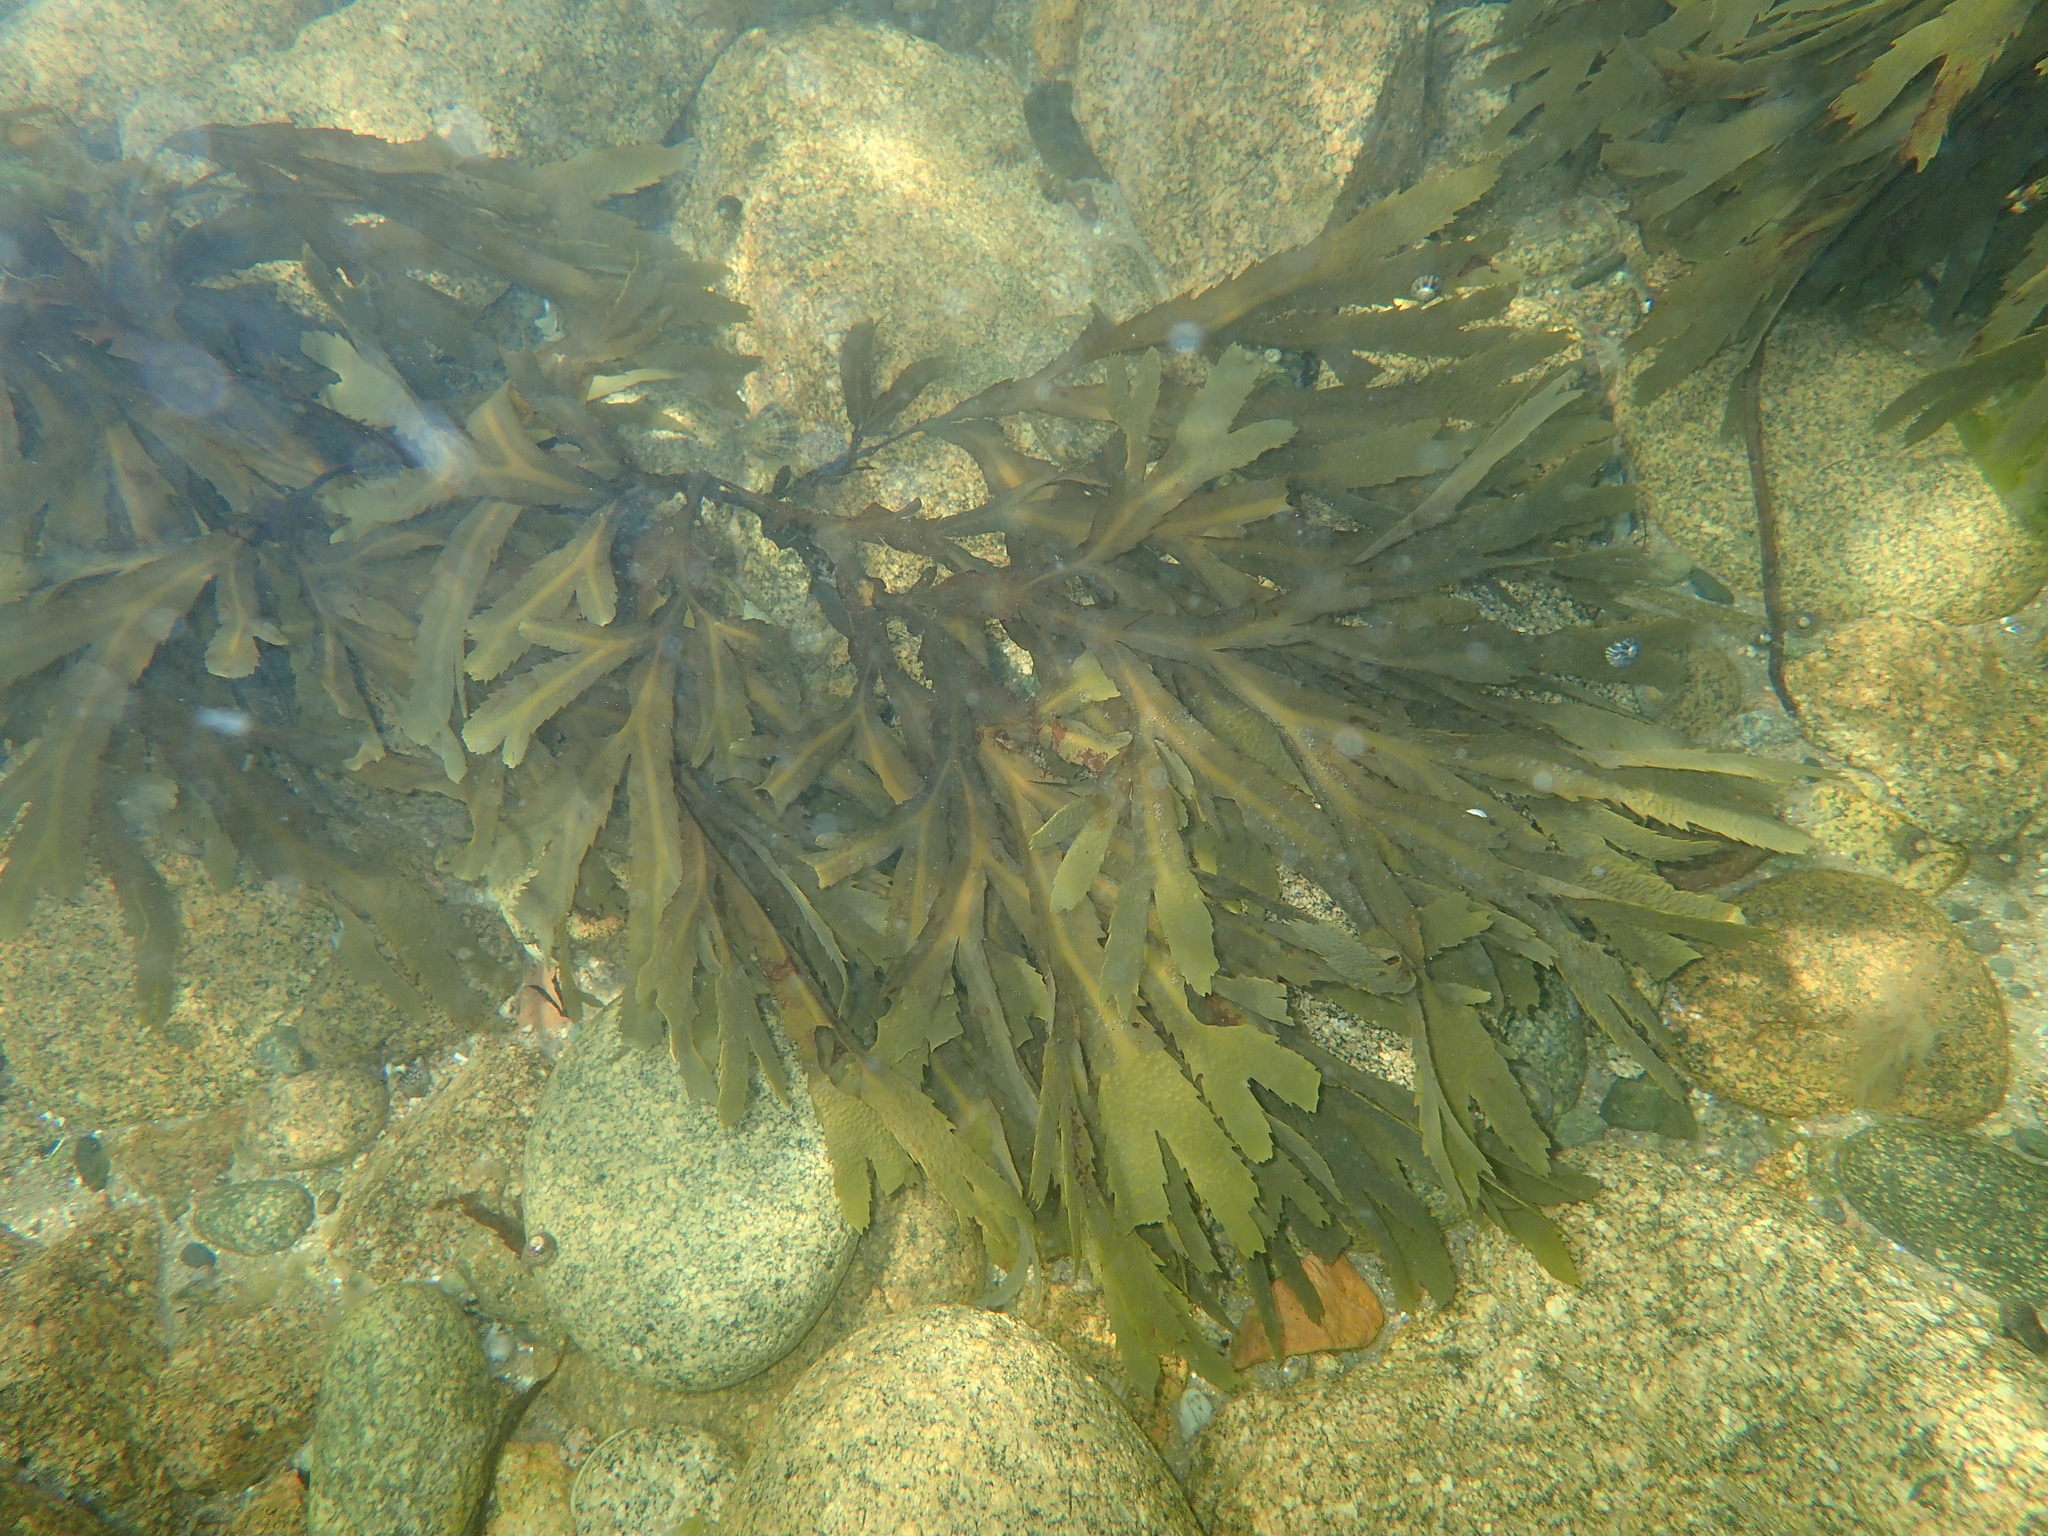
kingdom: Chromista
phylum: Ochrophyta
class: Phaeophyceae
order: Fucales
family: Fucaceae
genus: Fucus
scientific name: Fucus serratus
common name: Toothed wrack
